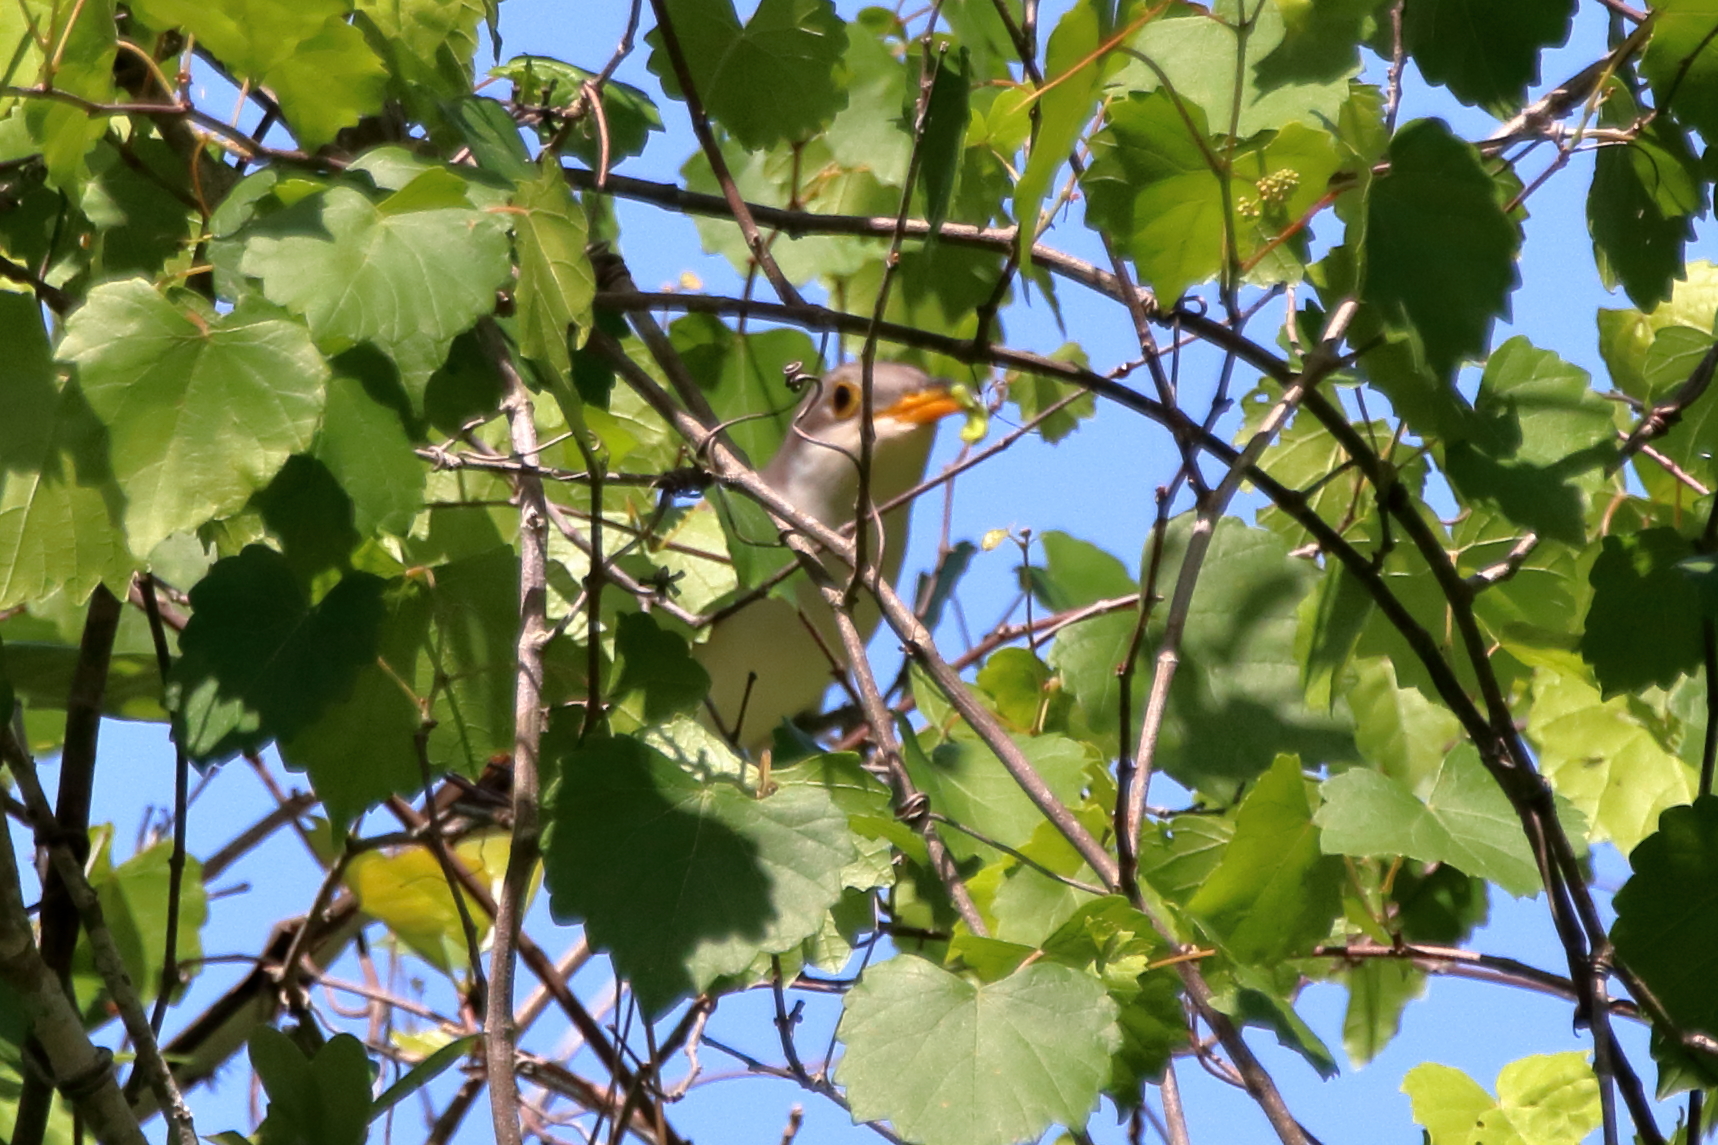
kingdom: Animalia
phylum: Chordata
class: Aves
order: Cuculiformes
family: Cuculidae
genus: Coccyzus
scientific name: Coccyzus americanus
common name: Yellow-billed cuckoo
